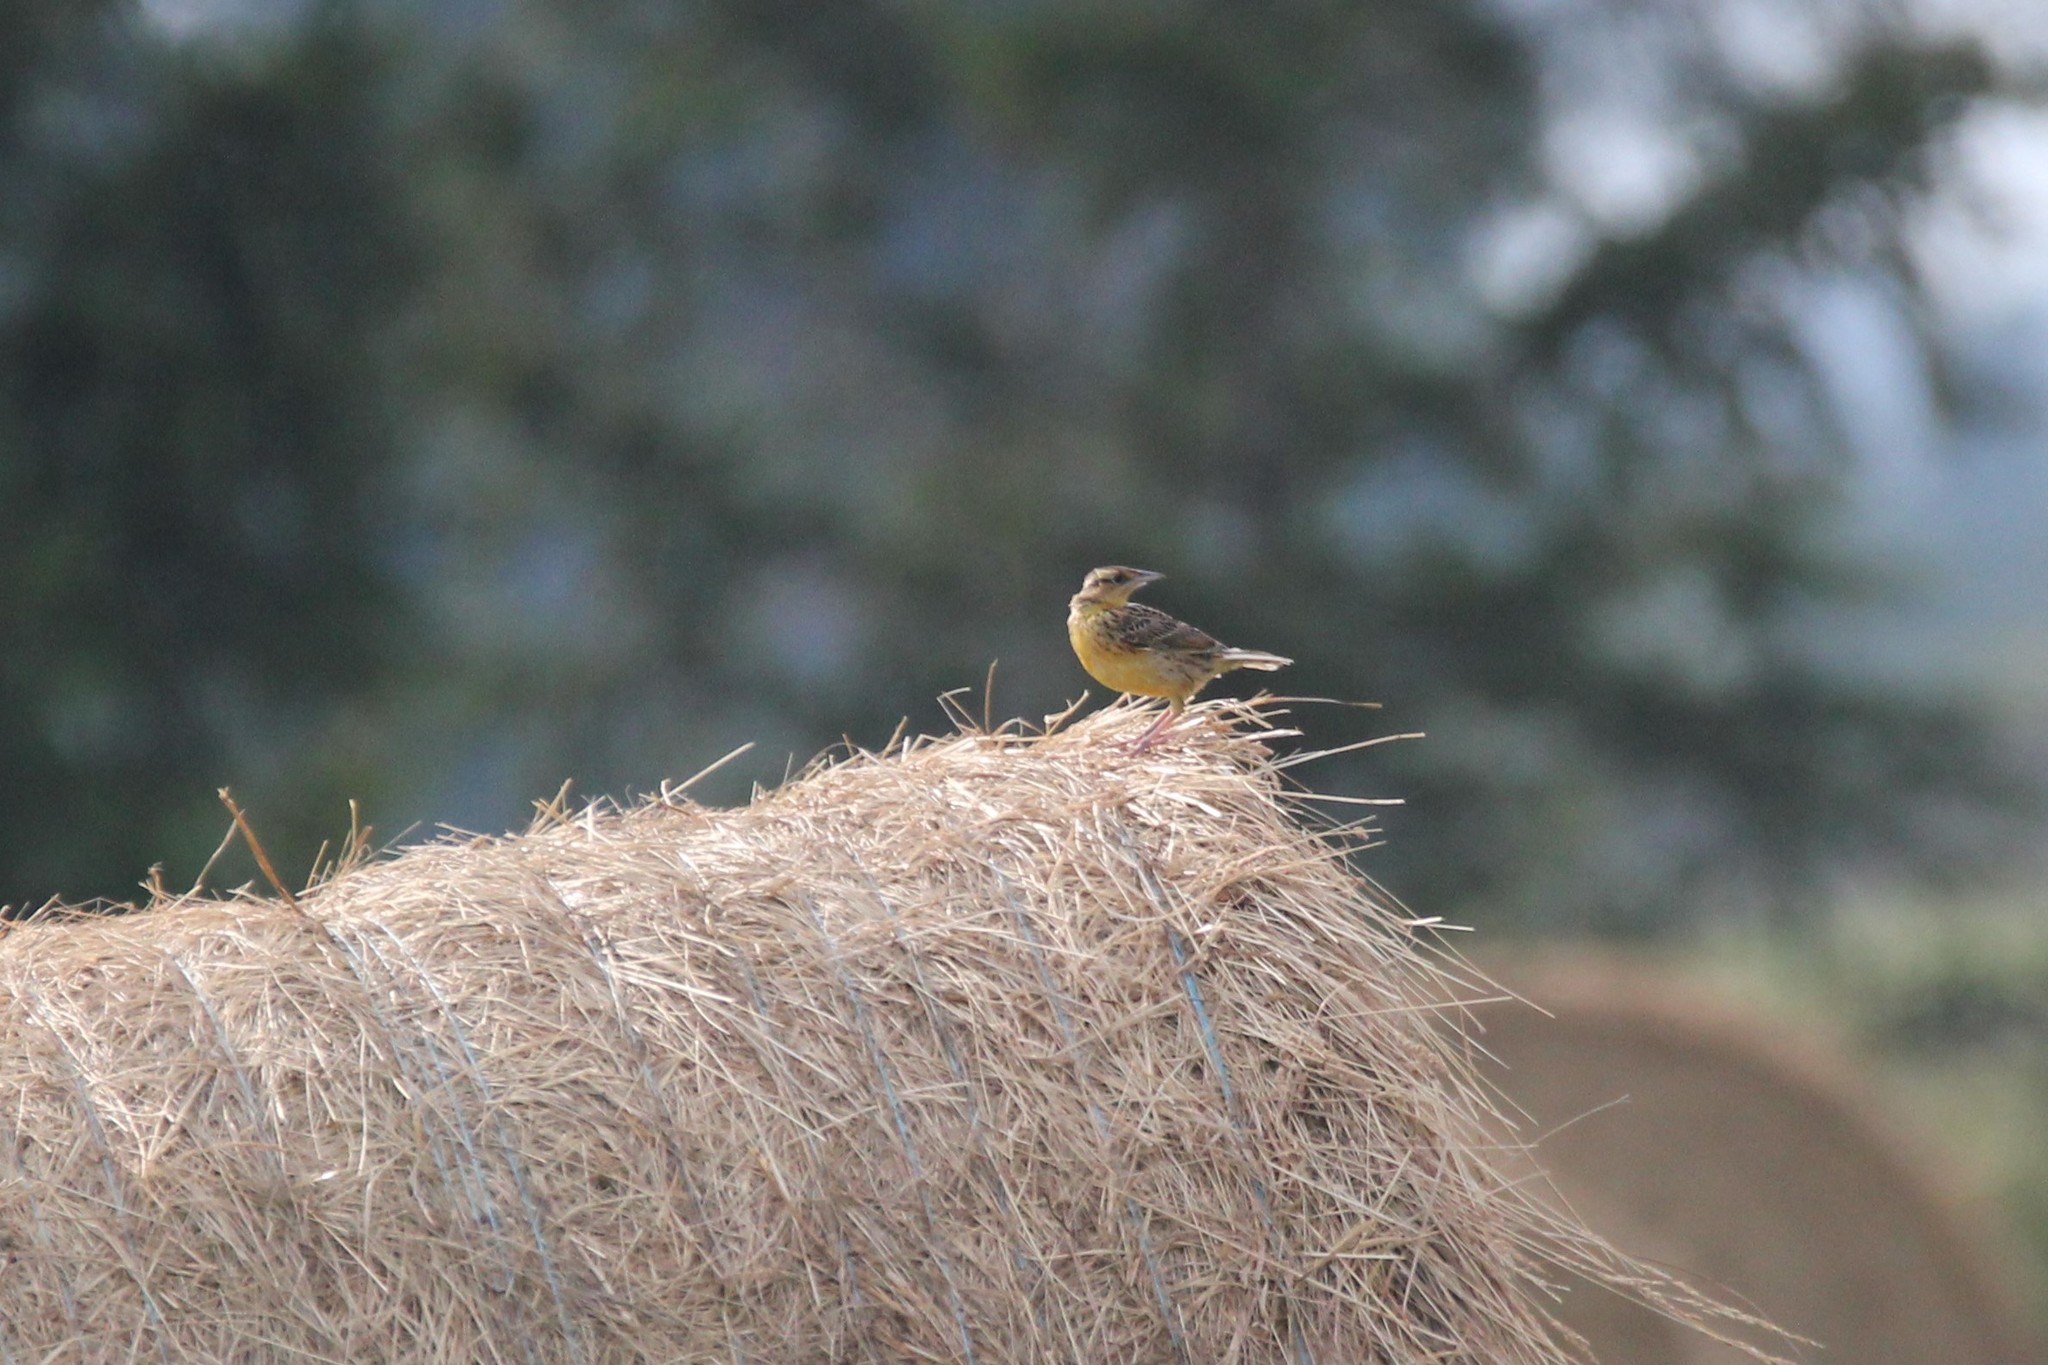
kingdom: Animalia
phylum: Chordata
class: Aves
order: Passeriformes
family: Icteridae
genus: Sturnella
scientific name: Sturnella magna
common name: Eastern meadowlark
